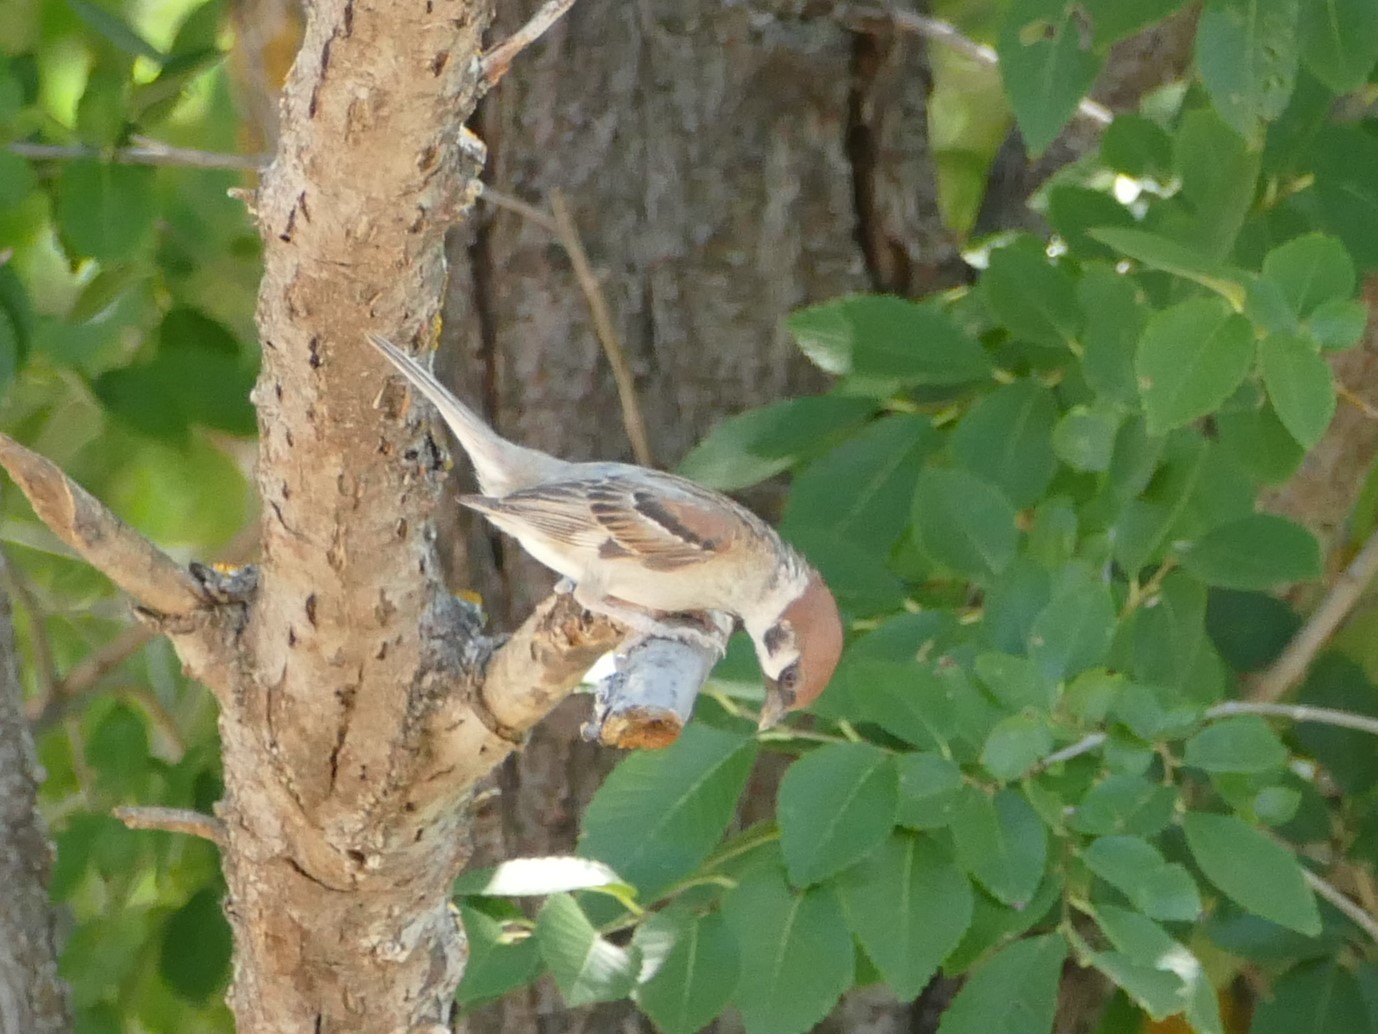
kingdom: Animalia
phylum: Chordata
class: Aves
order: Passeriformes
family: Passeridae
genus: Passer
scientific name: Passer montanus
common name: Eurasian tree sparrow
